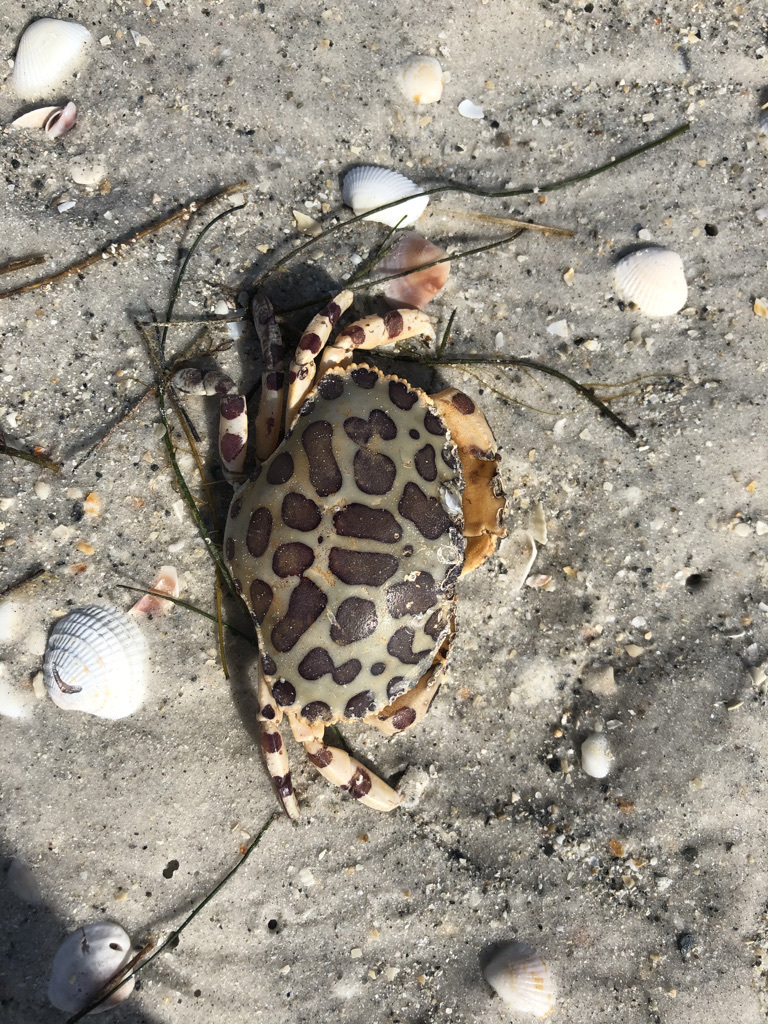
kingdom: Animalia
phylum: Arthropoda
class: Malacostraca
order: Decapoda
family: Aethridae
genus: Hepatus
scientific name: Hepatus epheliticus
